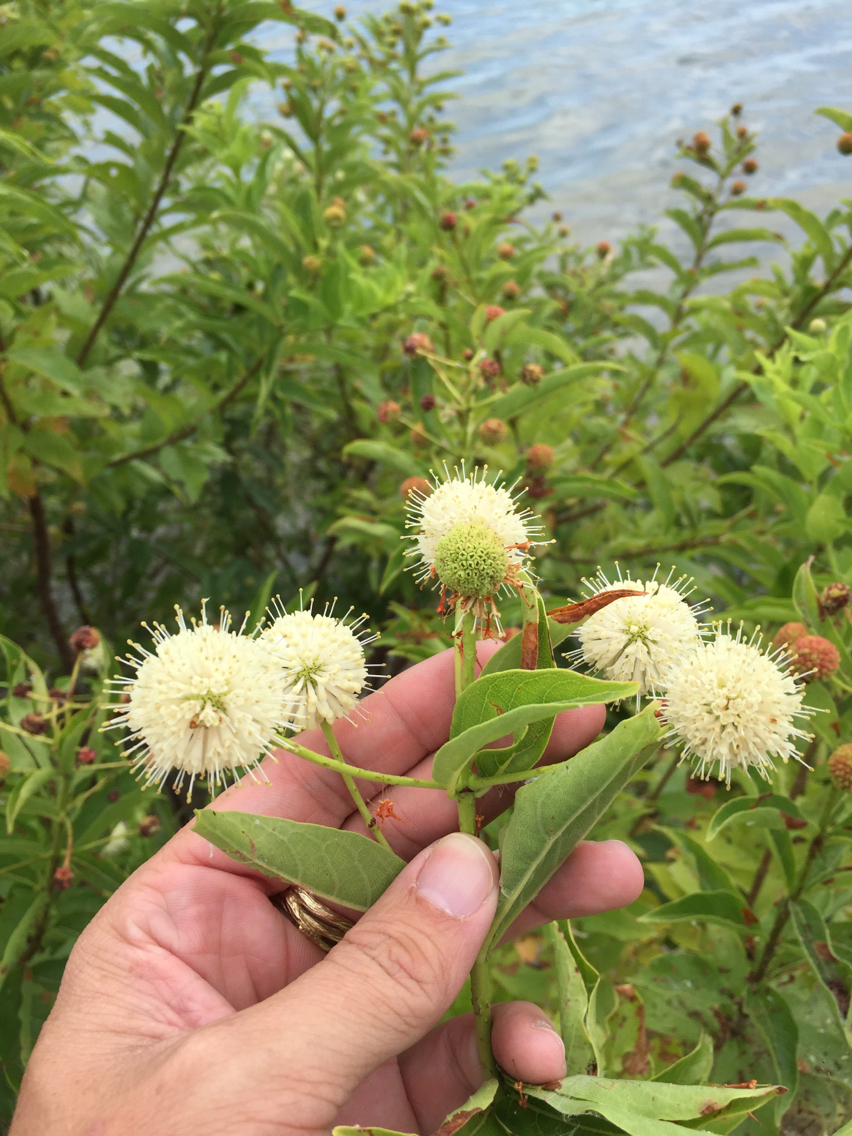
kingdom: Plantae
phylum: Tracheophyta
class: Magnoliopsida
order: Gentianales
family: Rubiaceae
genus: Cephalanthus
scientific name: Cephalanthus occidentalis
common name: Button-willow
